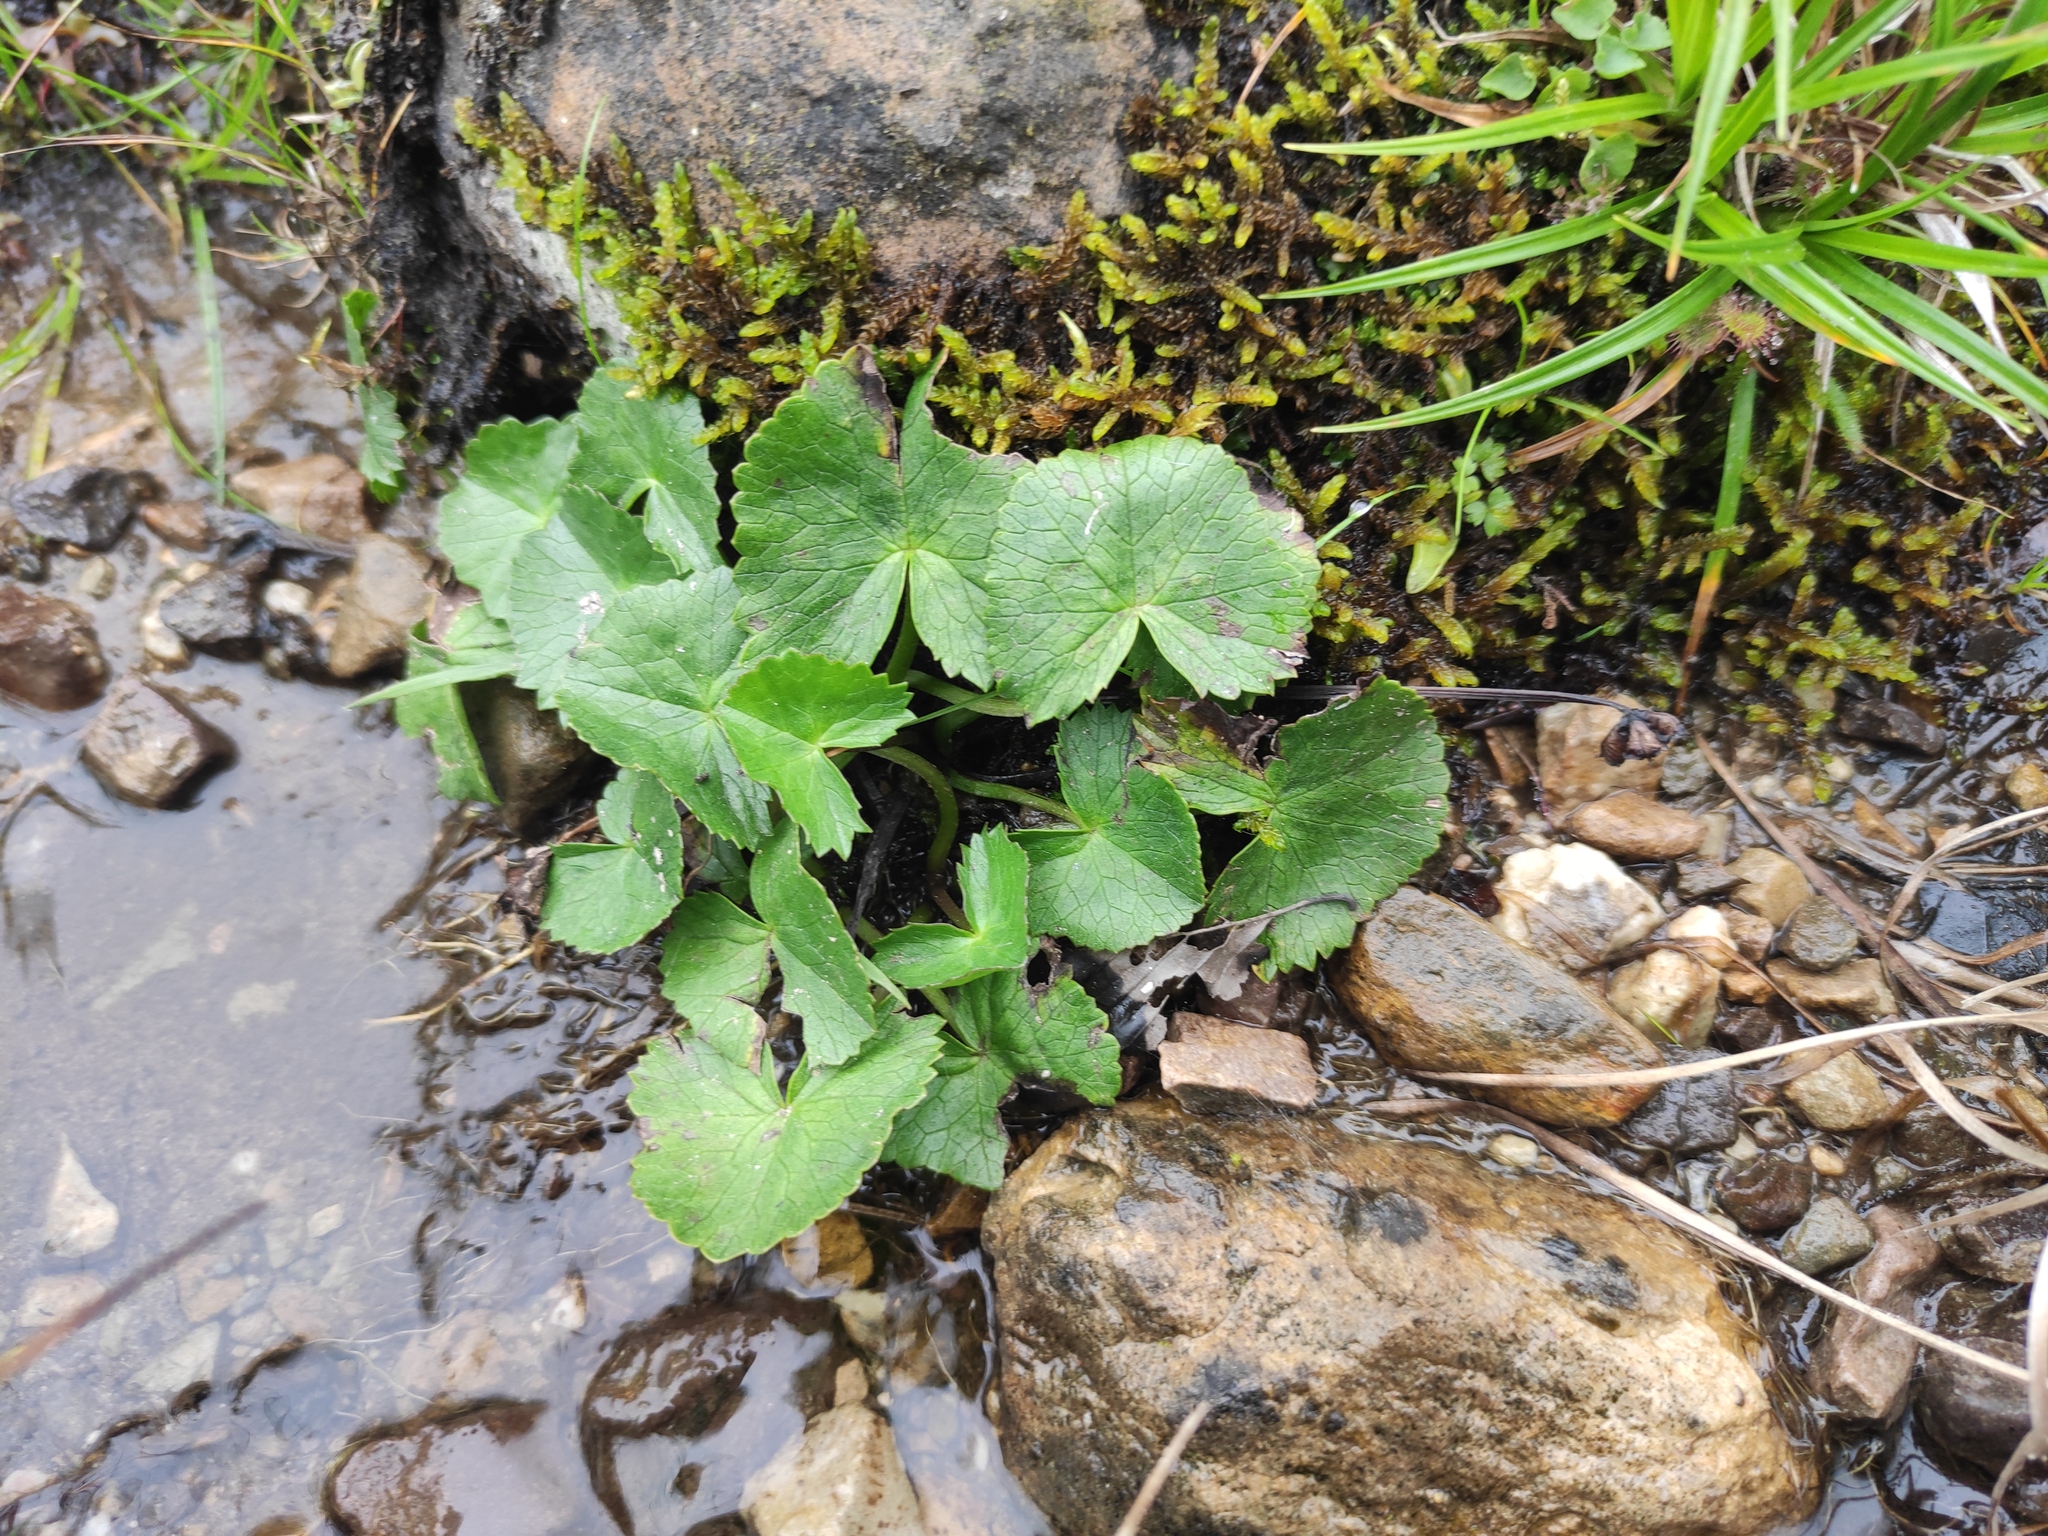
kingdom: Plantae
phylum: Tracheophyta
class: Magnoliopsida
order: Ranunculales
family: Ranunculaceae
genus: Caltha
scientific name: Caltha palustris
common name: Marsh marigold
